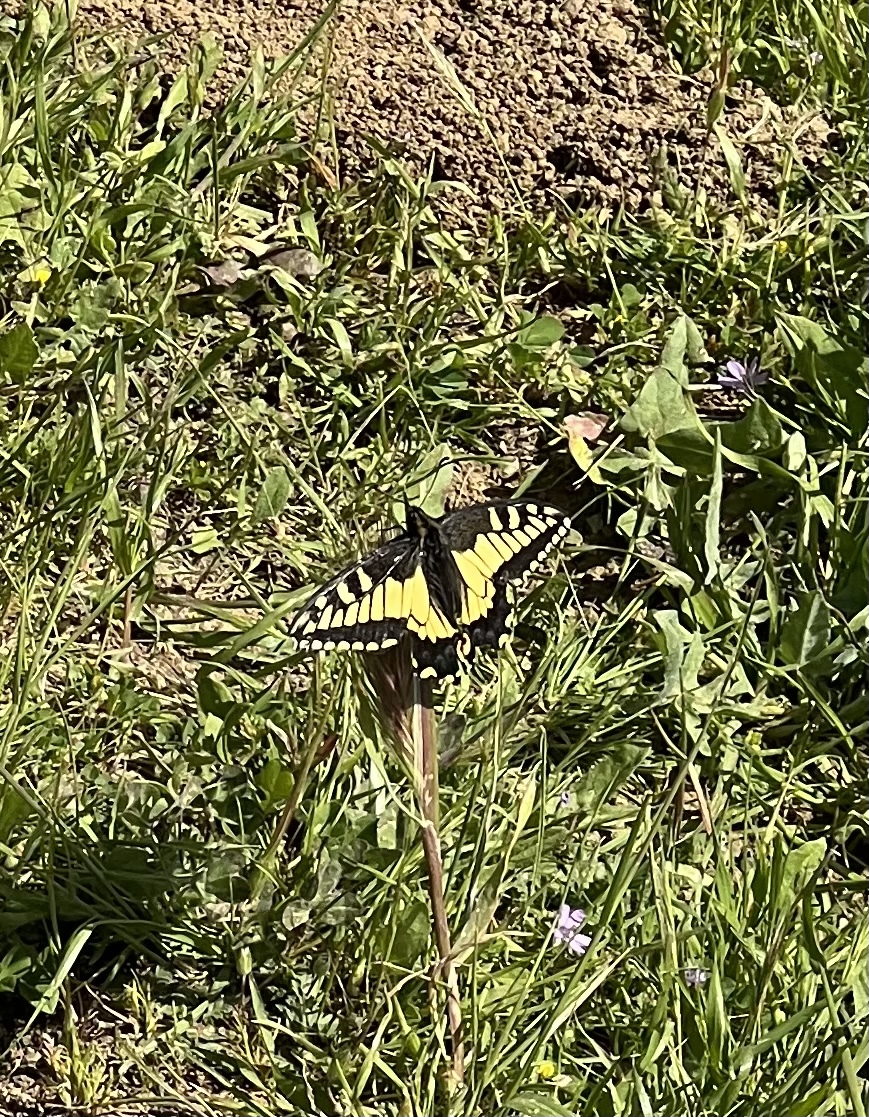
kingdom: Animalia
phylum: Arthropoda
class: Insecta
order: Lepidoptera
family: Papilionidae
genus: Papilio
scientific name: Papilio zelicaon
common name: Anise swallowtail
